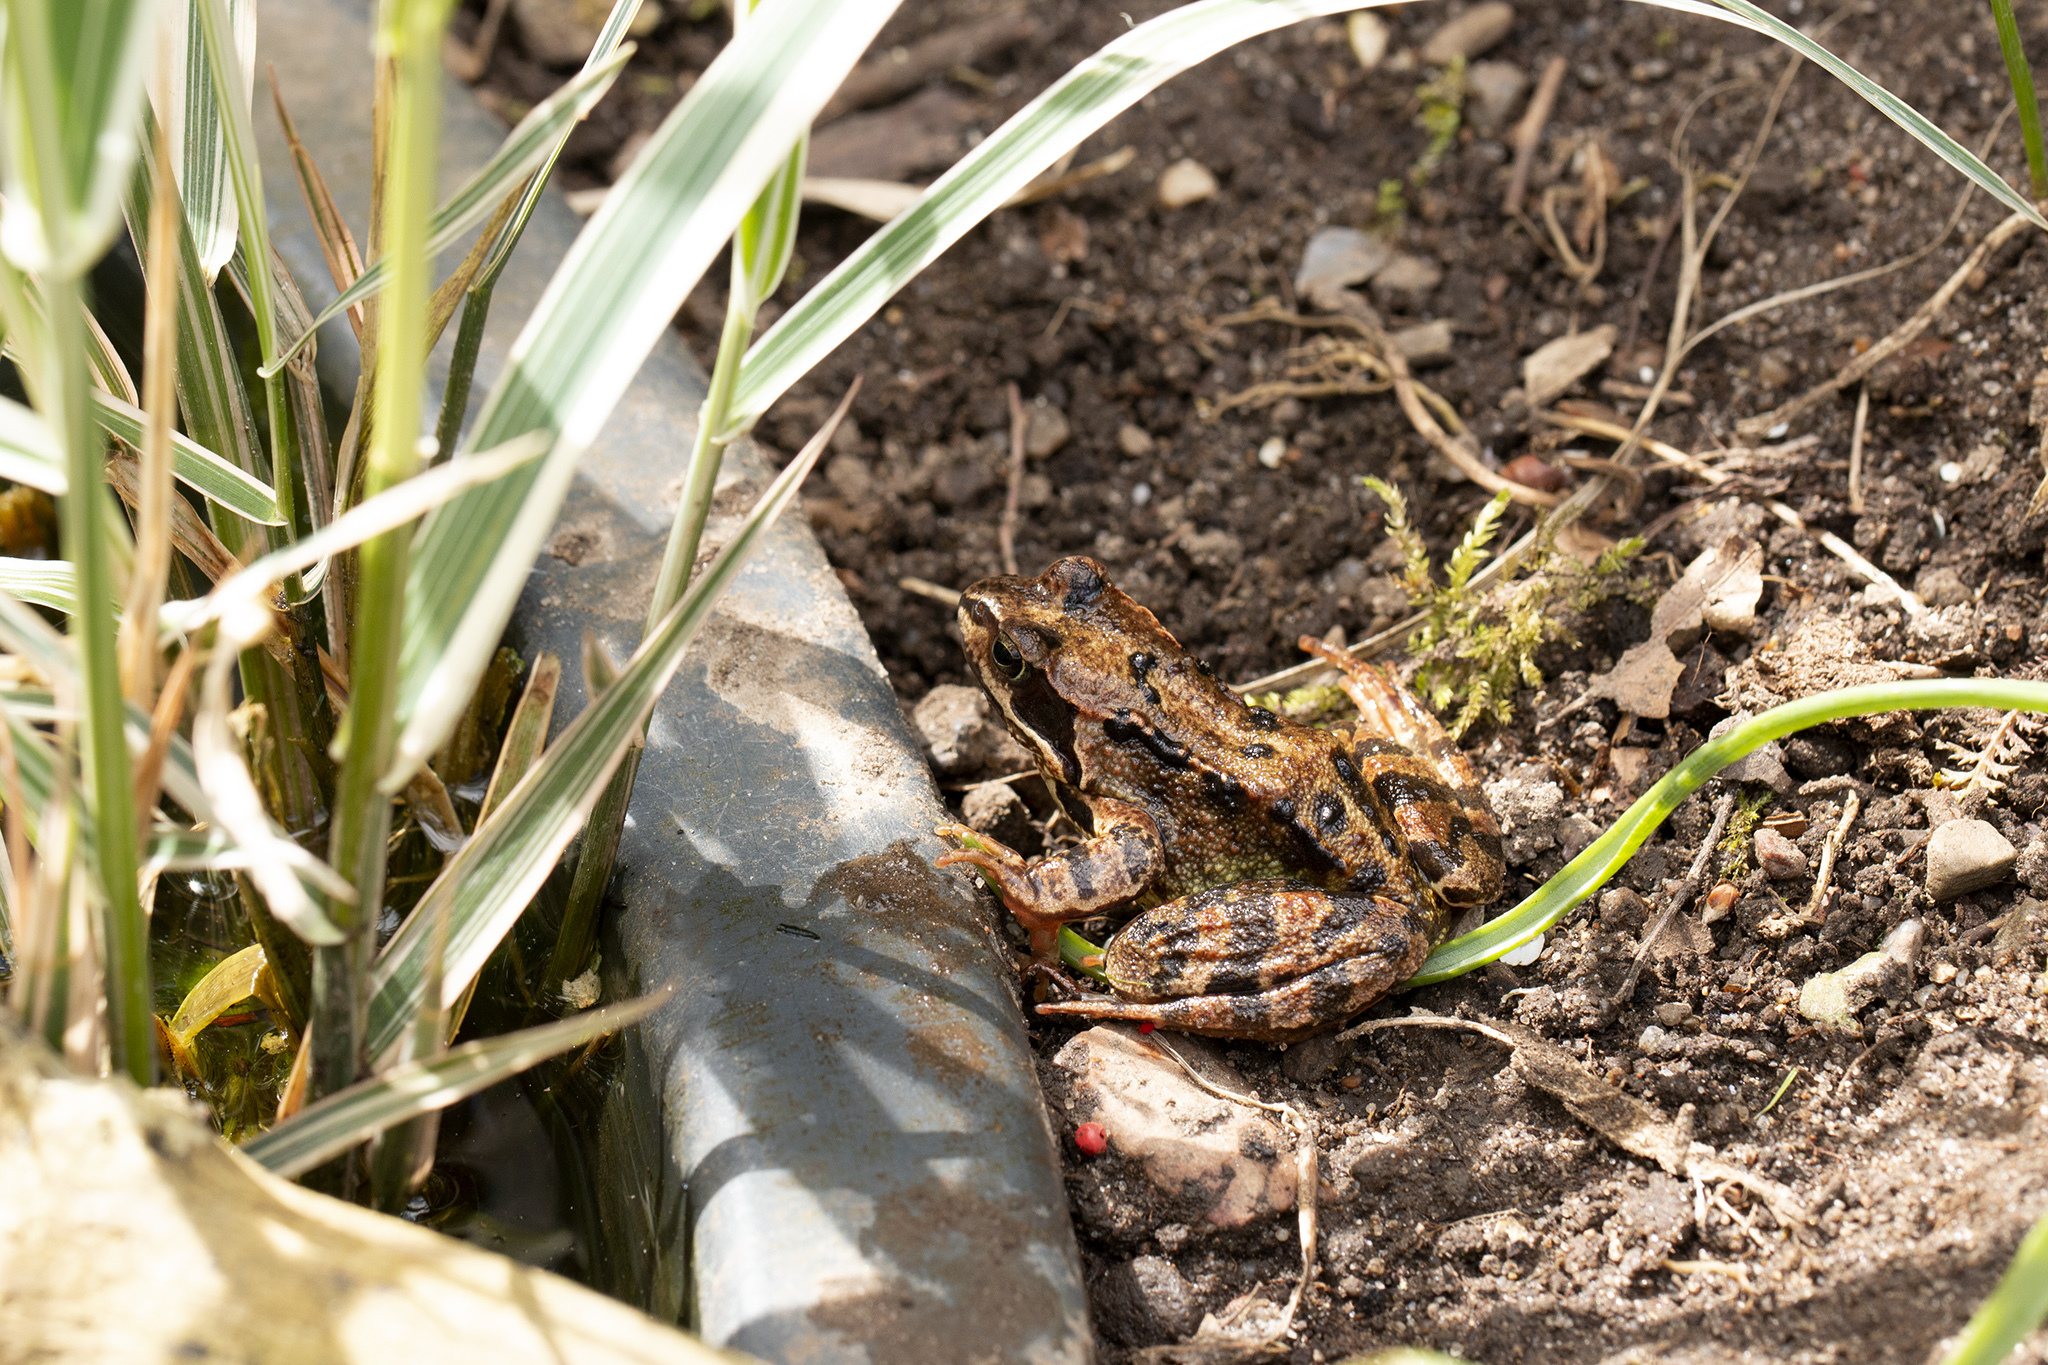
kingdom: Animalia
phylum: Chordata
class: Amphibia
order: Anura
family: Ranidae
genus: Rana
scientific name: Rana temporaria
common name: Common frog
